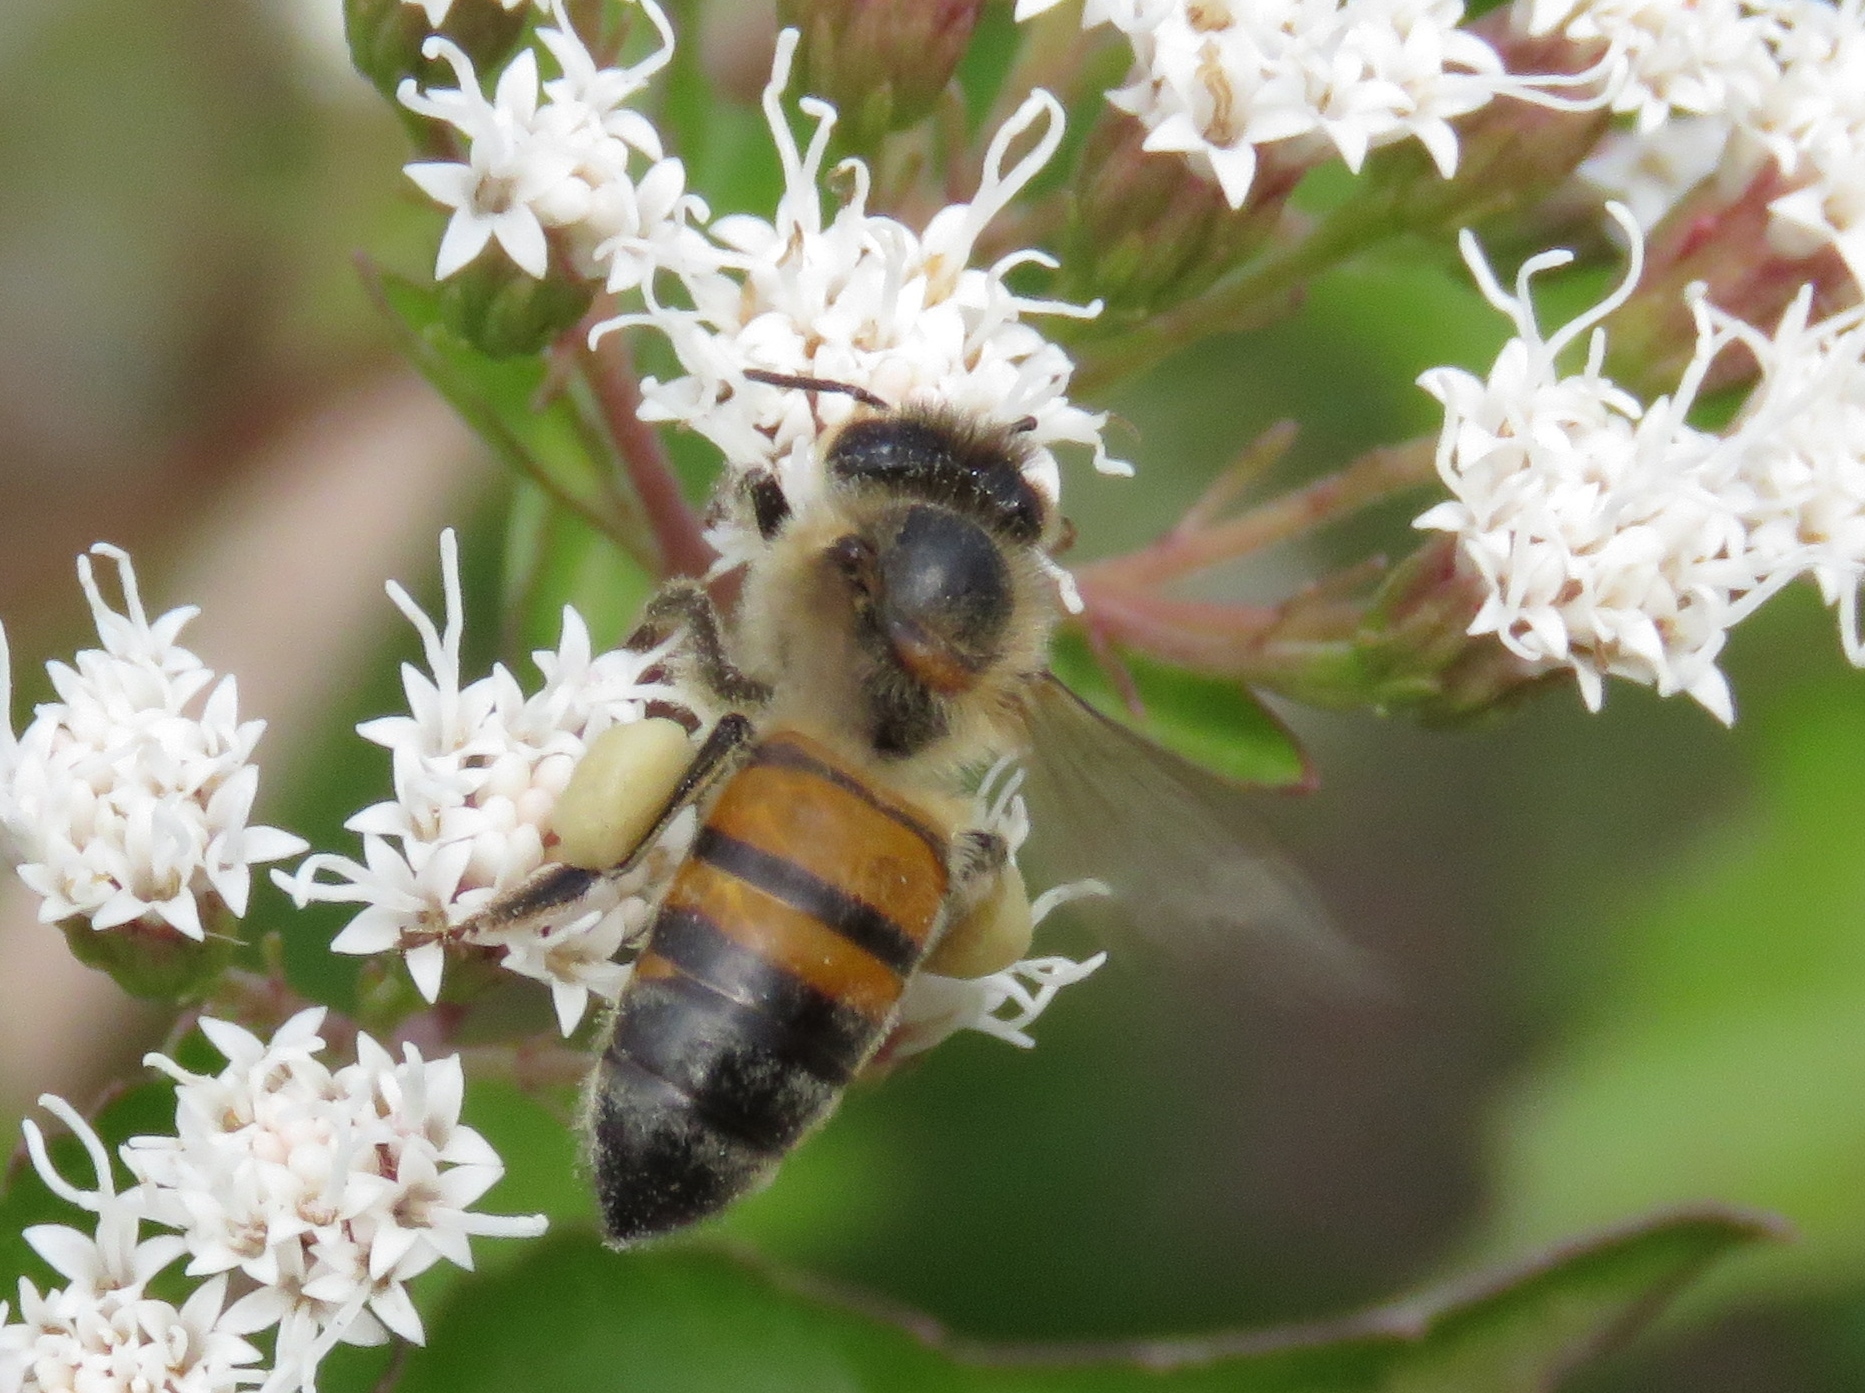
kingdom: Animalia
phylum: Arthropoda
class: Insecta
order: Hymenoptera
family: Apidae
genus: Apis
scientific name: Apis mellifera
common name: Honey bee
